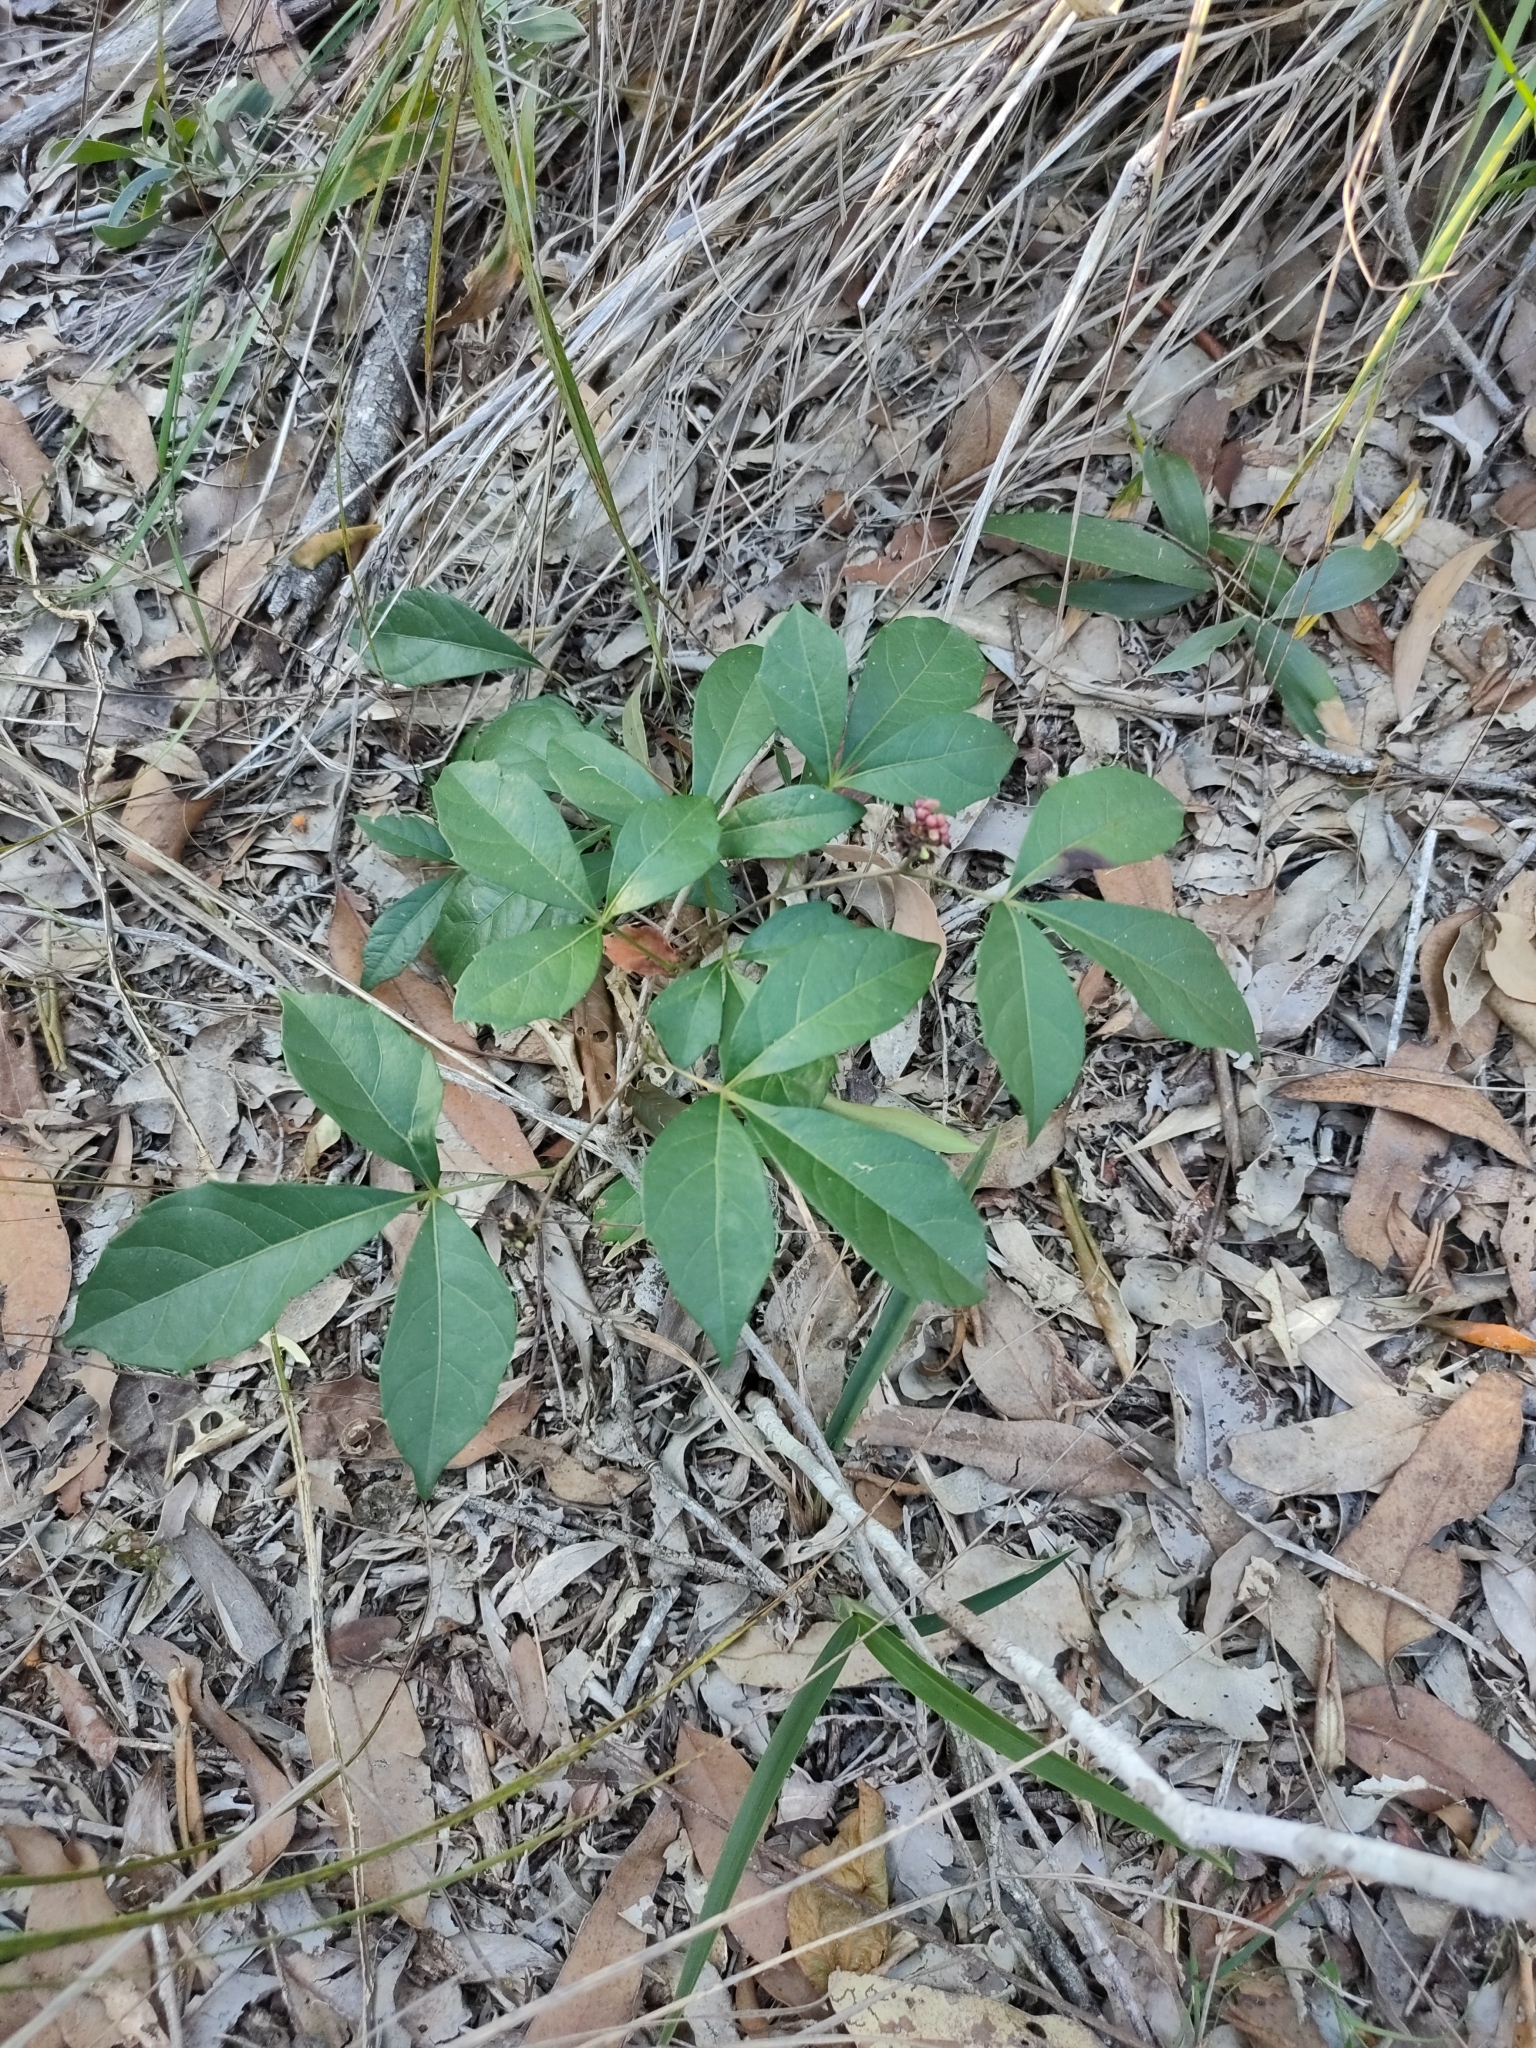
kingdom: Plantae
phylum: Tracheophyta
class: Magnoliopsida
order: Vitales
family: Vitaceae
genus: Clematicissus
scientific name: Clematicissus opaca
